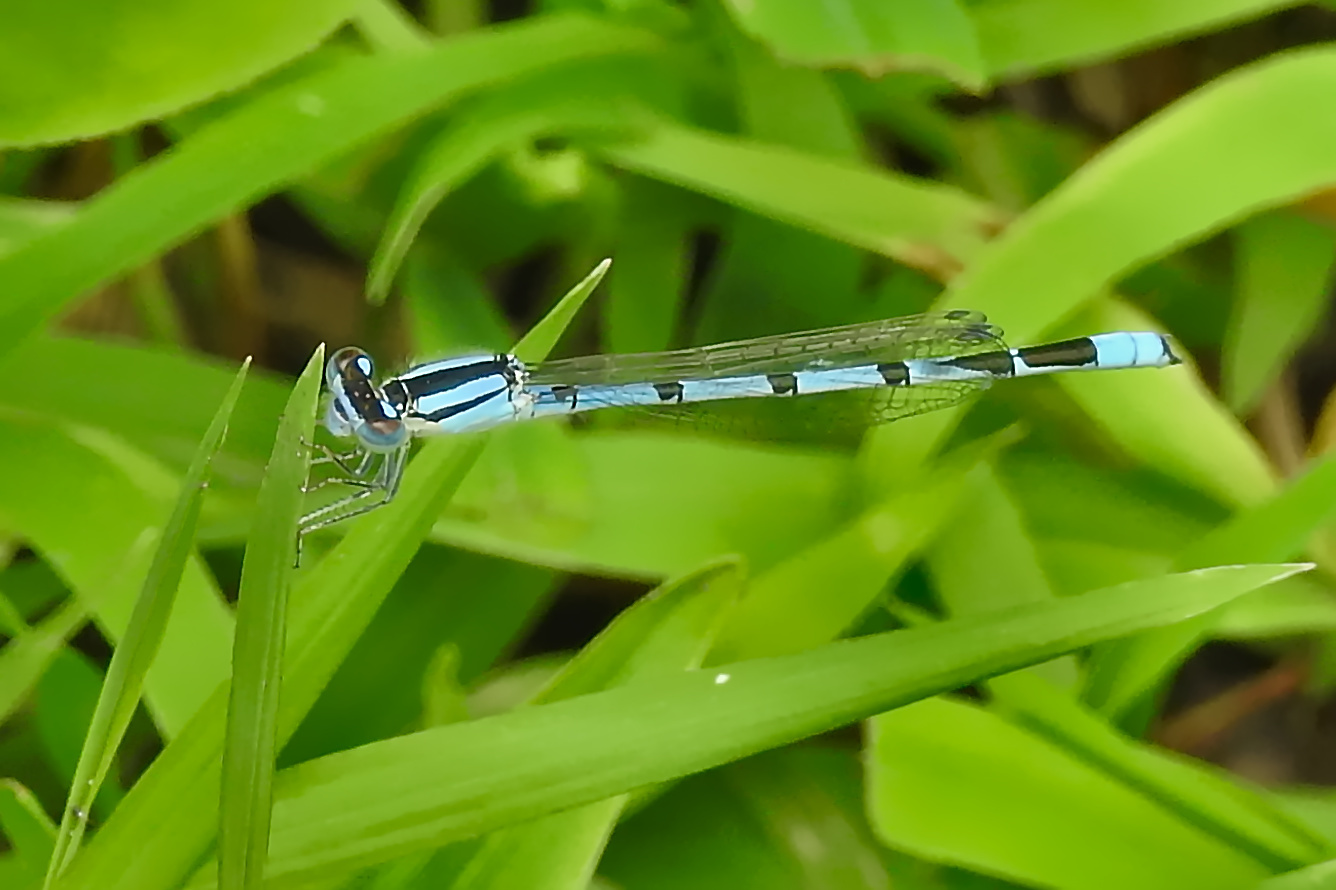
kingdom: Animalia
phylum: Arthropoda
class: Insecta
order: Odonata
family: Coenagrionidae
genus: Enallagma
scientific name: Enallagma civile
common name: Damselfly
